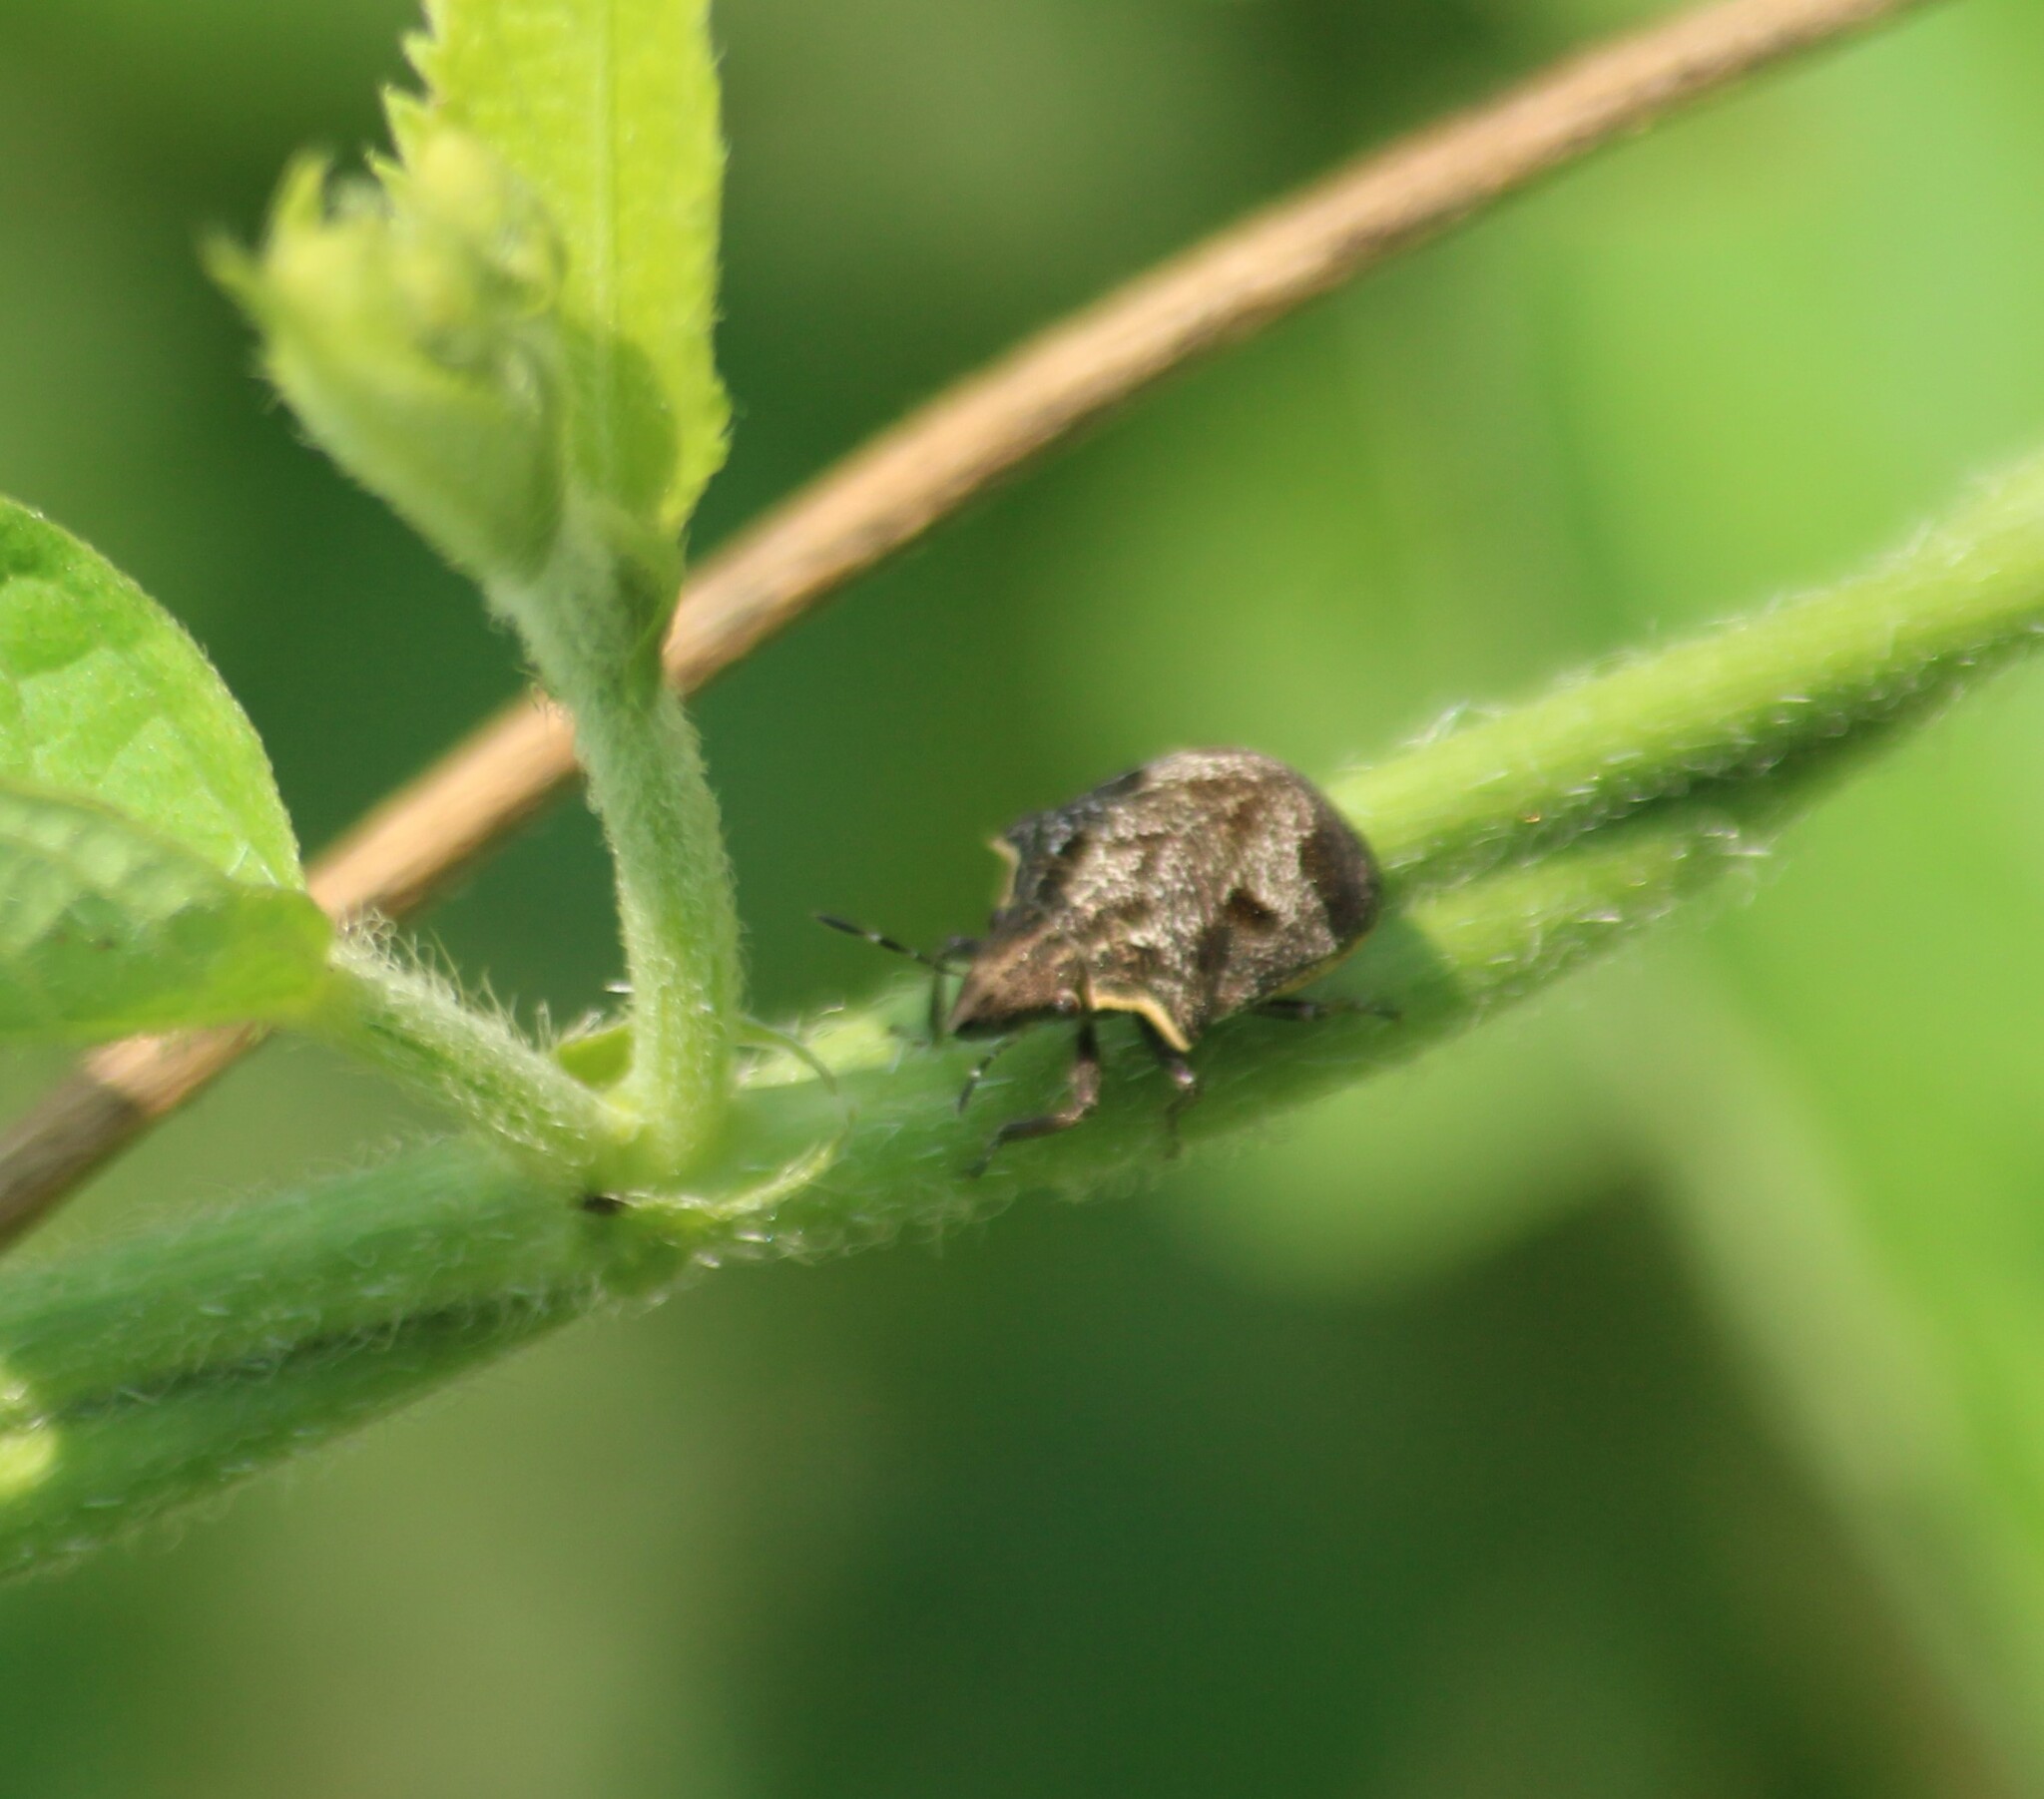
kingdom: Animalia
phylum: Arthropoda
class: Insecta
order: Hemiptera
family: Scutelleridae
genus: Hotea
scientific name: Hotea curculionoides
